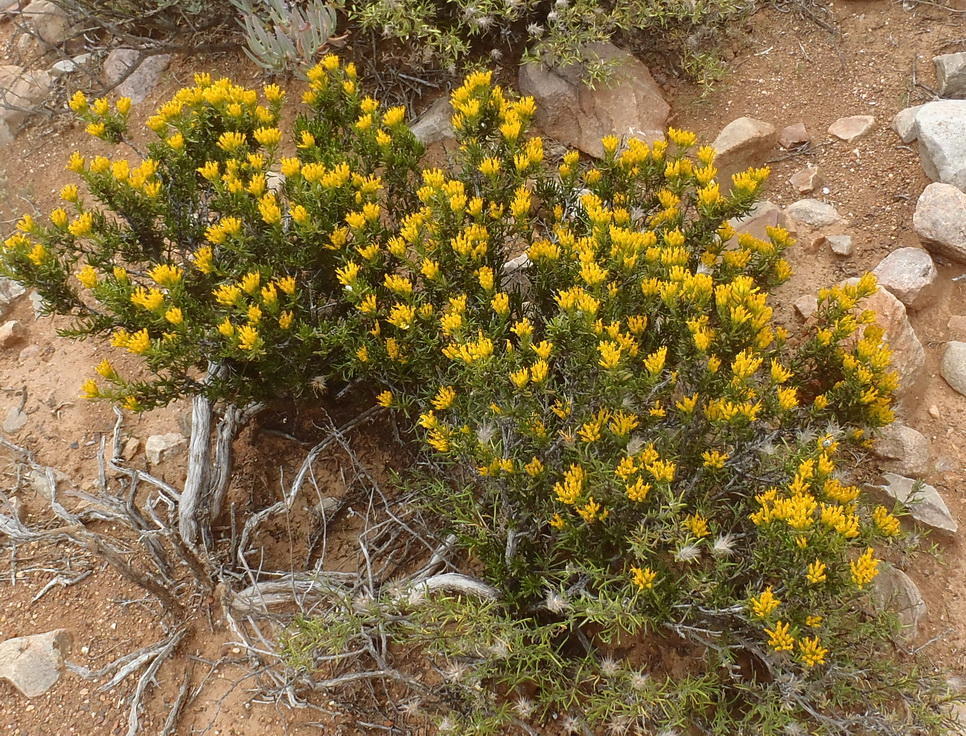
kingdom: Plantae
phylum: Tracheophyta
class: Magnoliopsida
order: Asterales
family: Asteraceae
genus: Pteronia
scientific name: Pteronia paniculata
